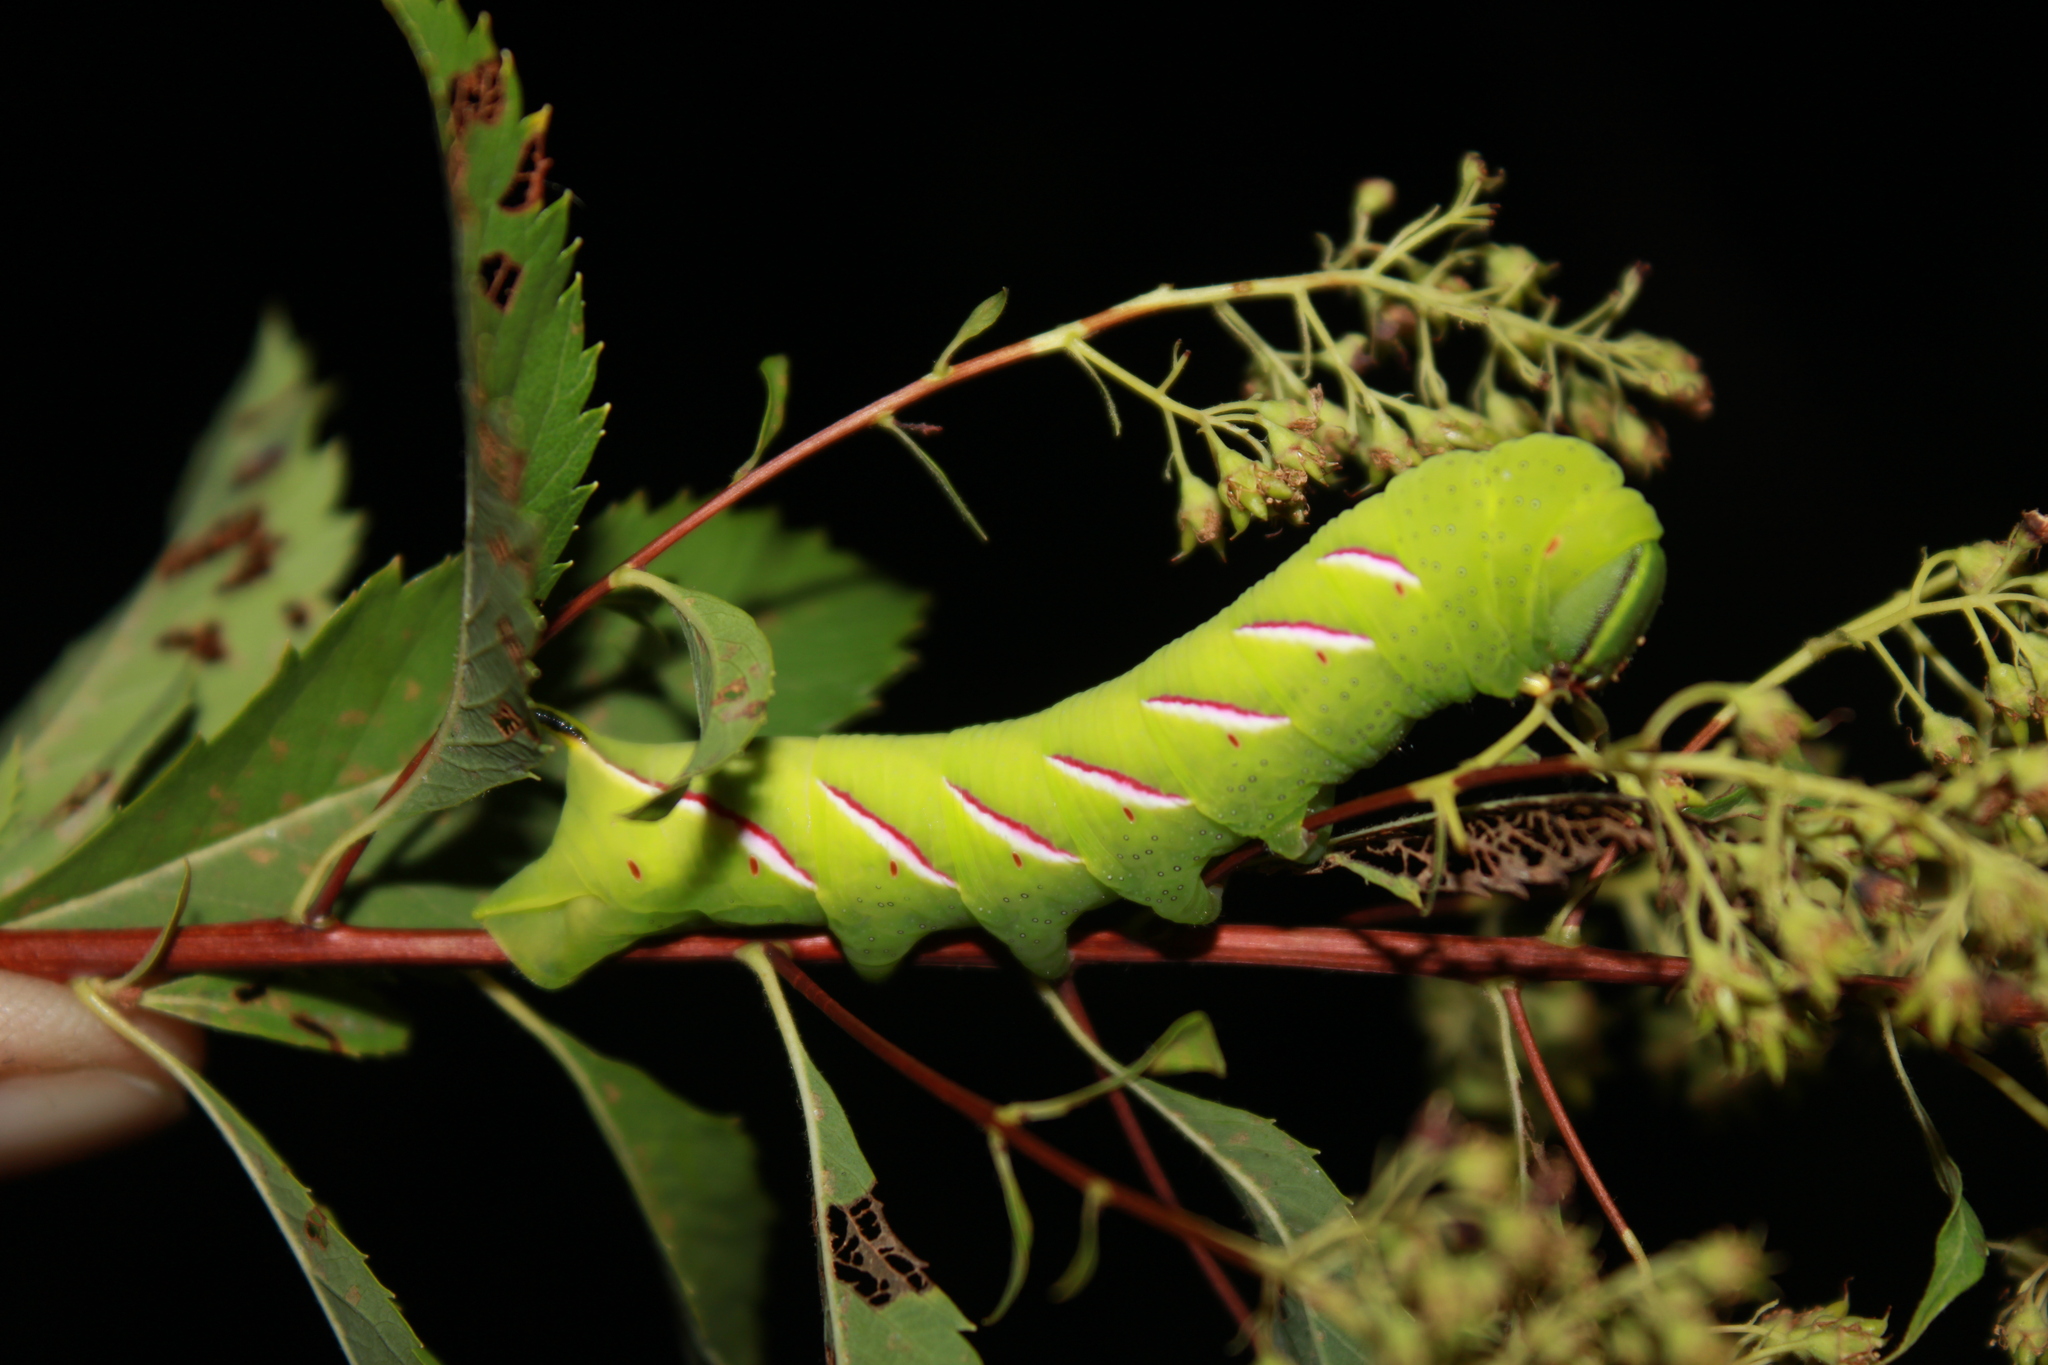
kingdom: Animalia
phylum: Arthropoda
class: Insecta
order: Lepidoptera
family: Sphingidae
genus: Sphinx
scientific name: Sphinx
